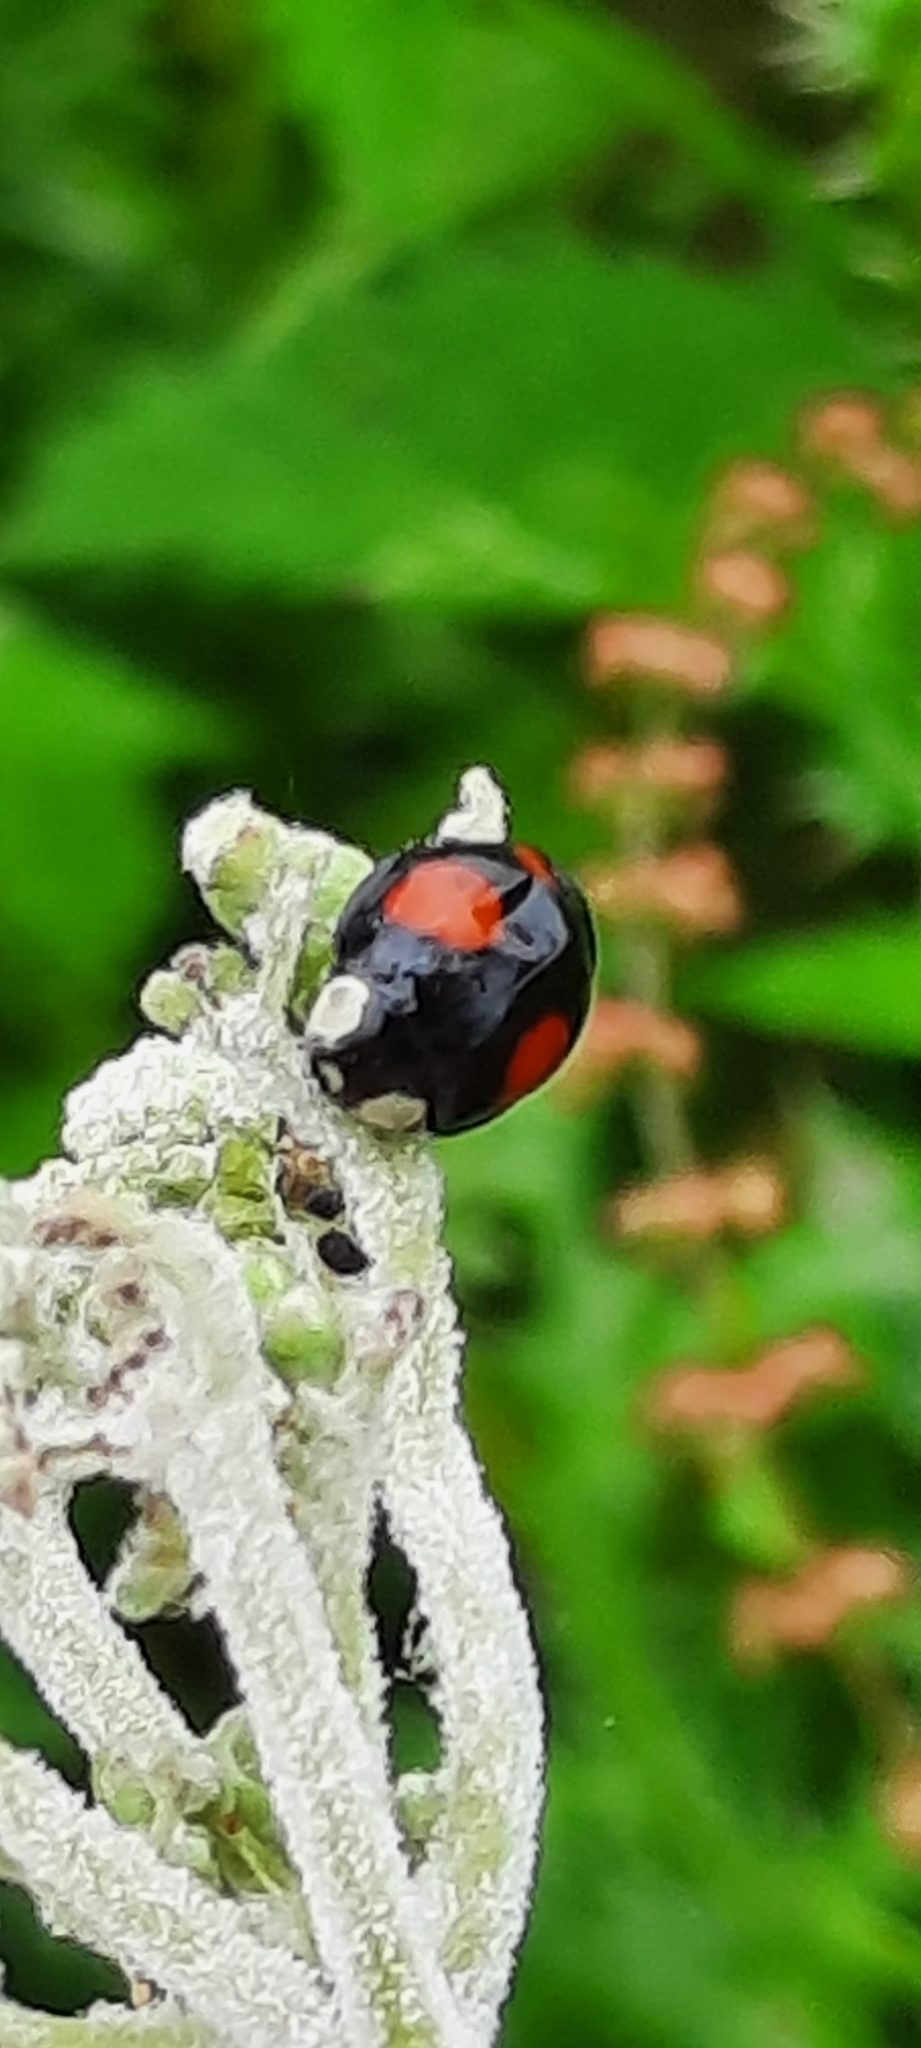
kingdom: Animalia
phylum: Arthropoda
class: Insecta
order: Coleoptera
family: Coccinellidae
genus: Harmonia
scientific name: Harmonia axyridis
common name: Harlequin ladybird
